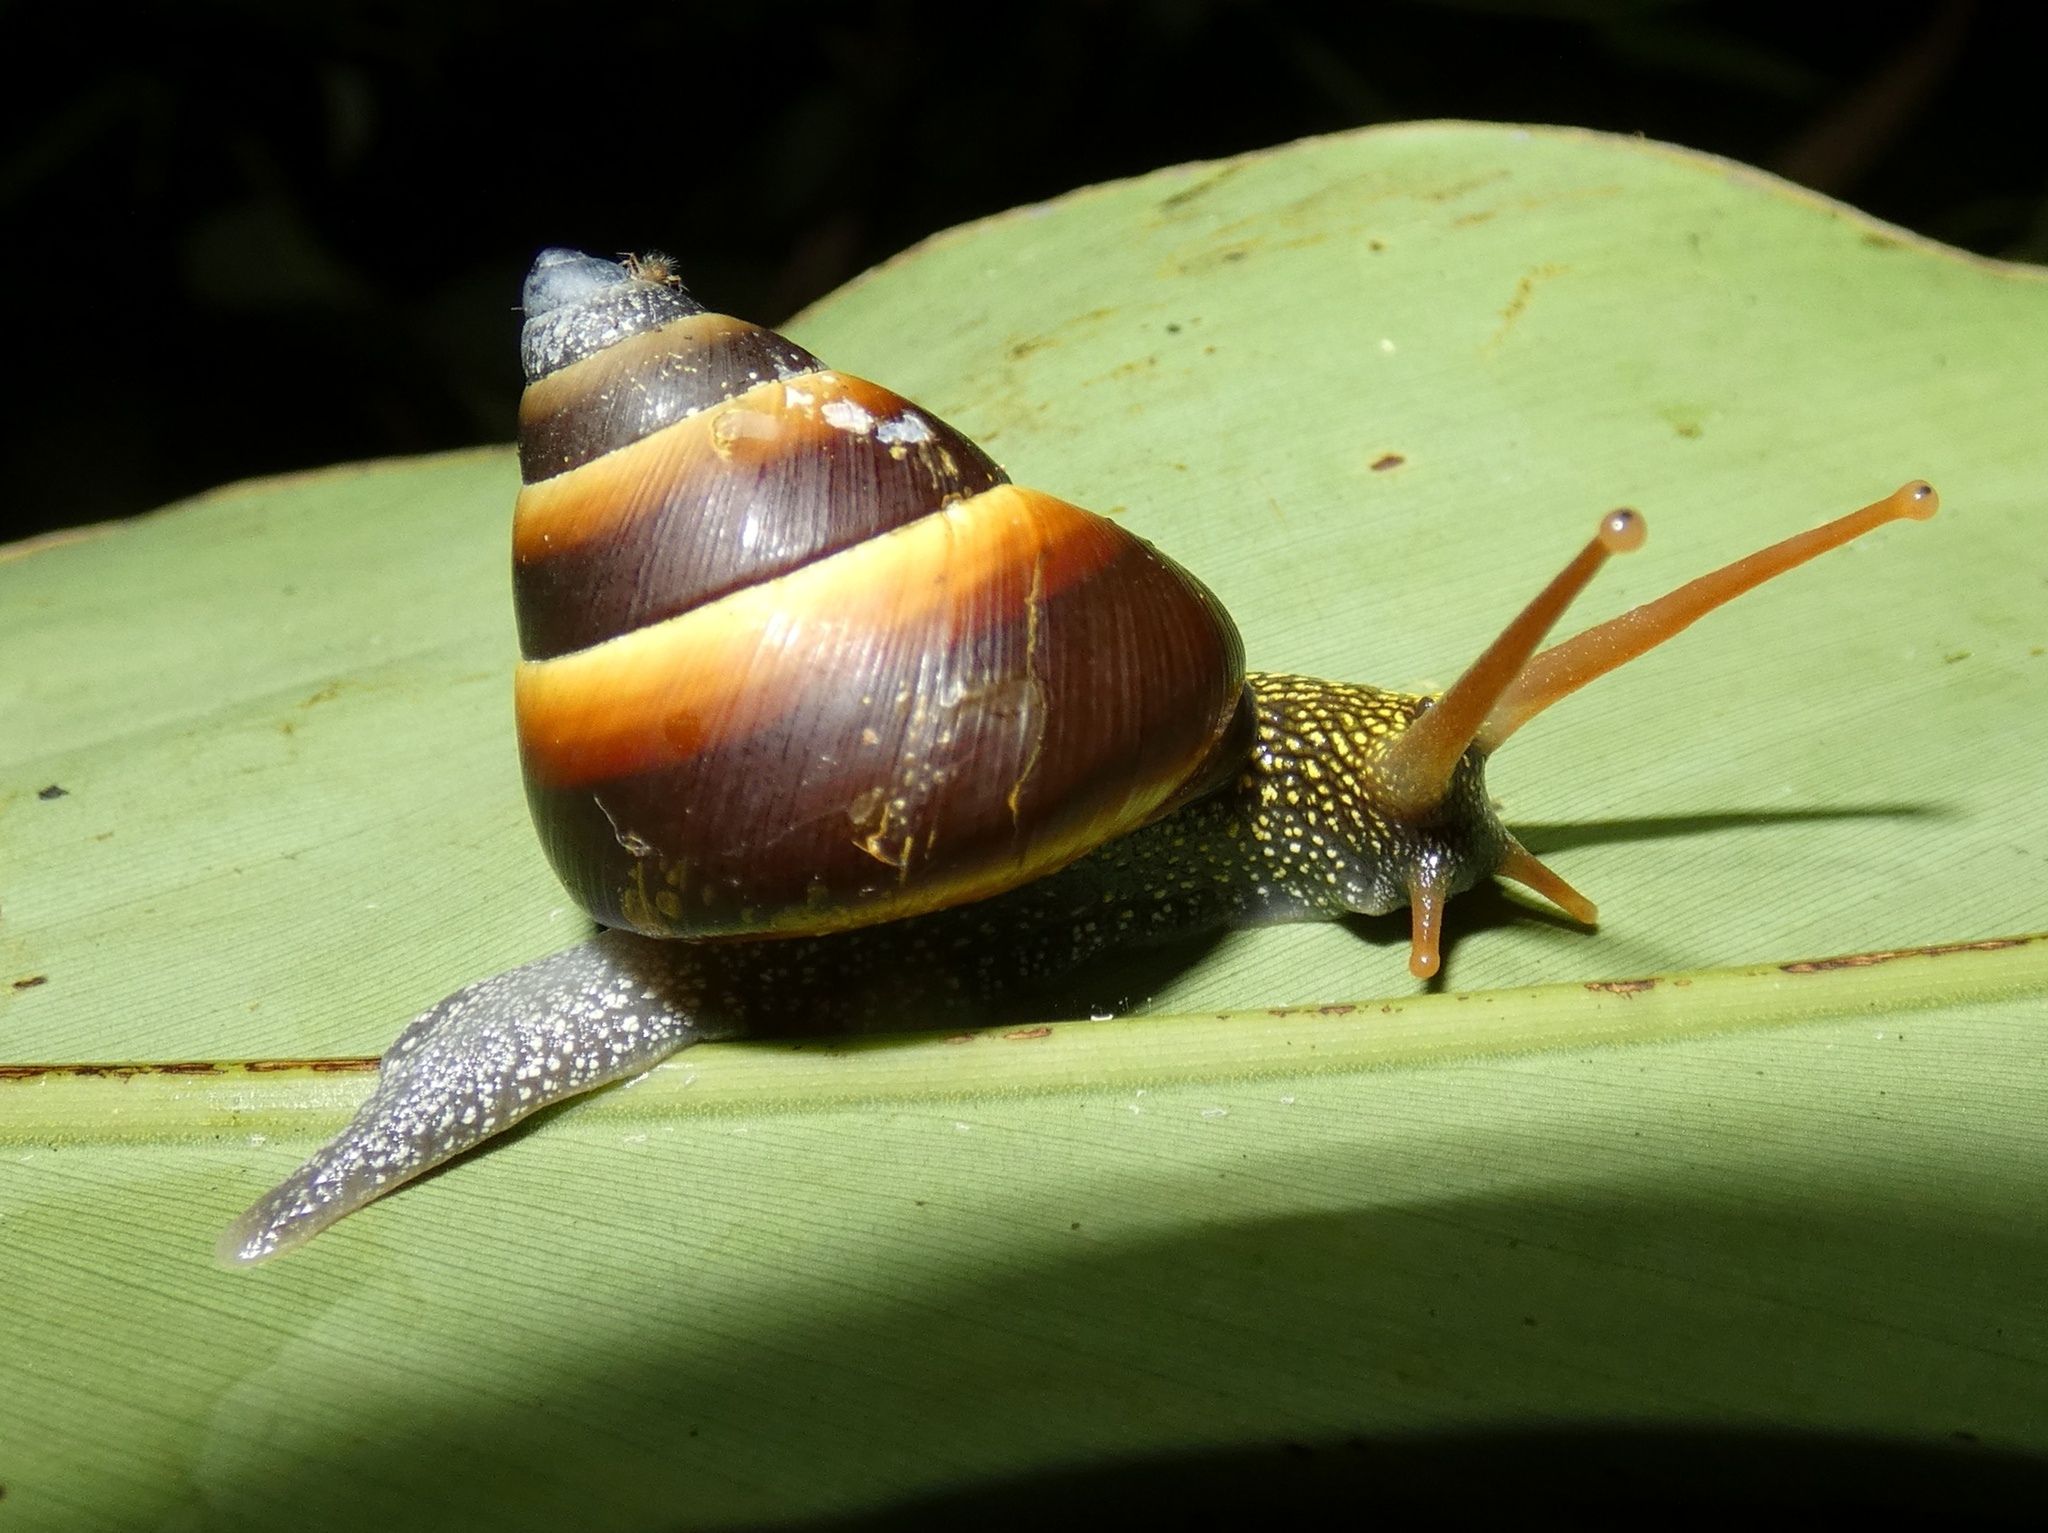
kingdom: Animalia
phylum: Mollusca
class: Gastropoda
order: Stylommatophora
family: Camaenidae
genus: Noctepuna
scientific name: Noctepuna mayana
